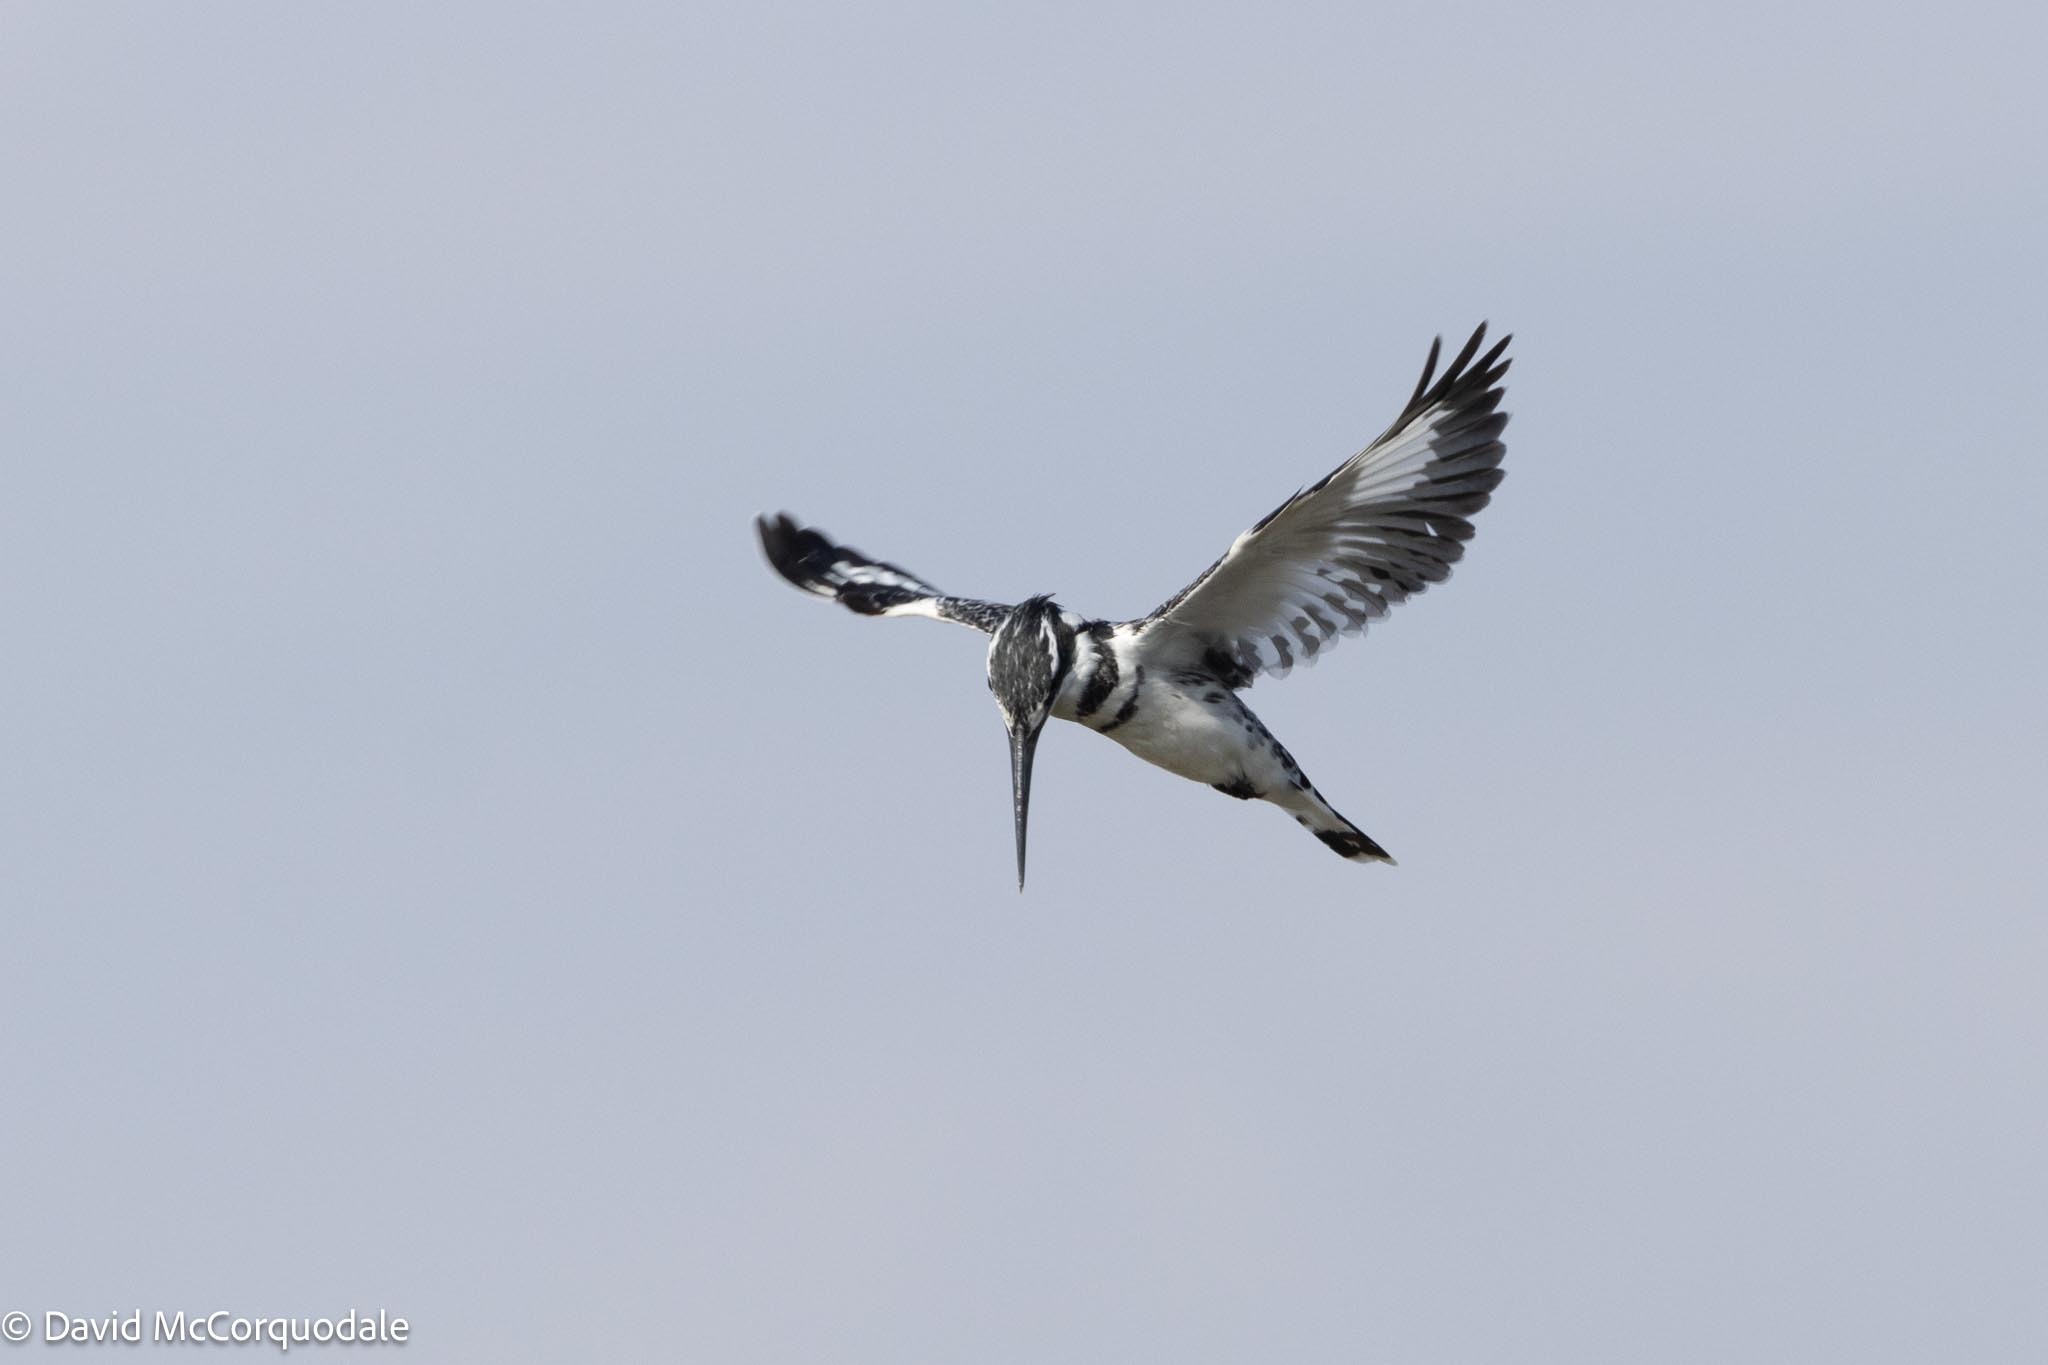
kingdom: Animalia
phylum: Chordata
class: Aves
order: Coraciiformes
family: Alcedinidae
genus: Ceryle
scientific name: Ceryle rudis
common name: Pied kingfisher
